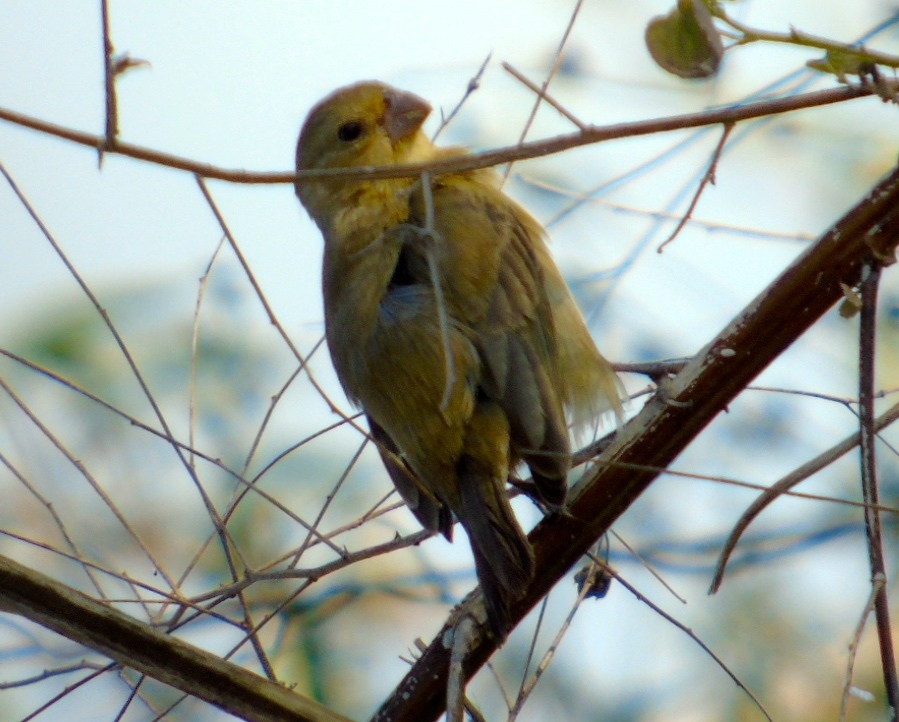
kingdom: Animalia
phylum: Chordata
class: Aves
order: Passeriformes
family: Thraupidae
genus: Sporophila
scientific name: Sporophila torqueola
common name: White-collared seedeater
